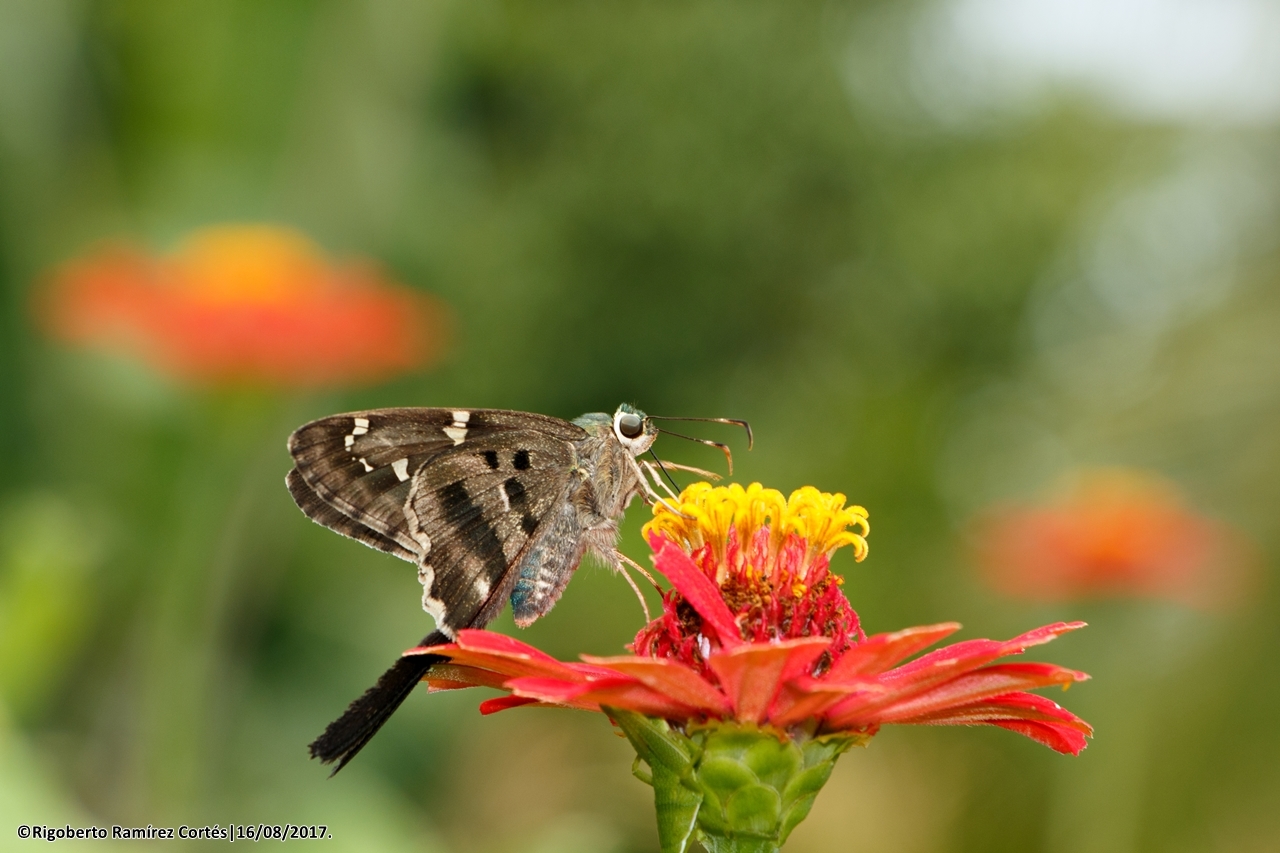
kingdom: Animalia
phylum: Arthropoda
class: Insecta
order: Lepidoptera
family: Hesperiidae
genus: Urbanus
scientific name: Urbanus proteus
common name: Long-tailed skipper
